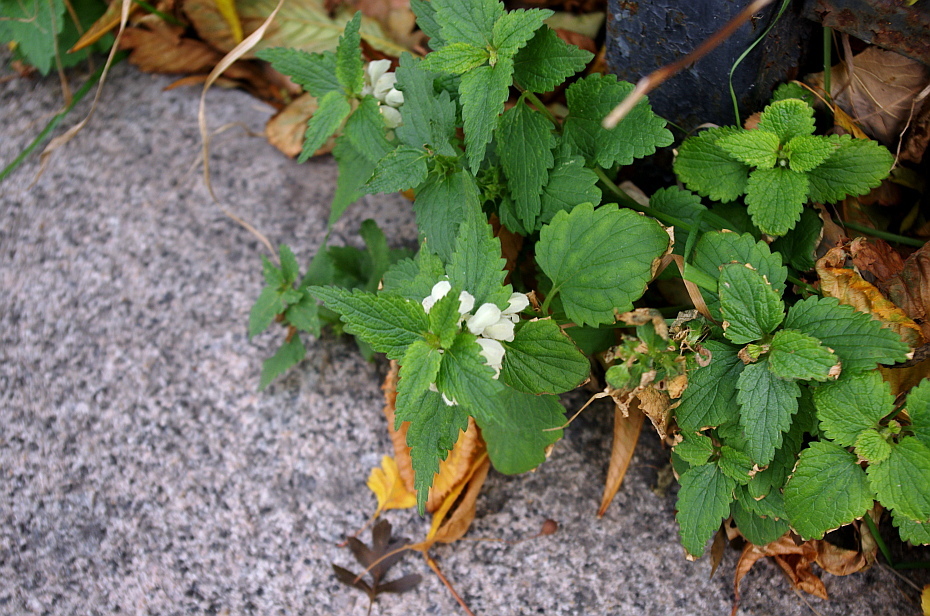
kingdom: Plantae
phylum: Tracheophyta
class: Magnoliopsida
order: Lamiales
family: Lamiaceae
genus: Lamium
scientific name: Lamium album
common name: White dead-nettle
